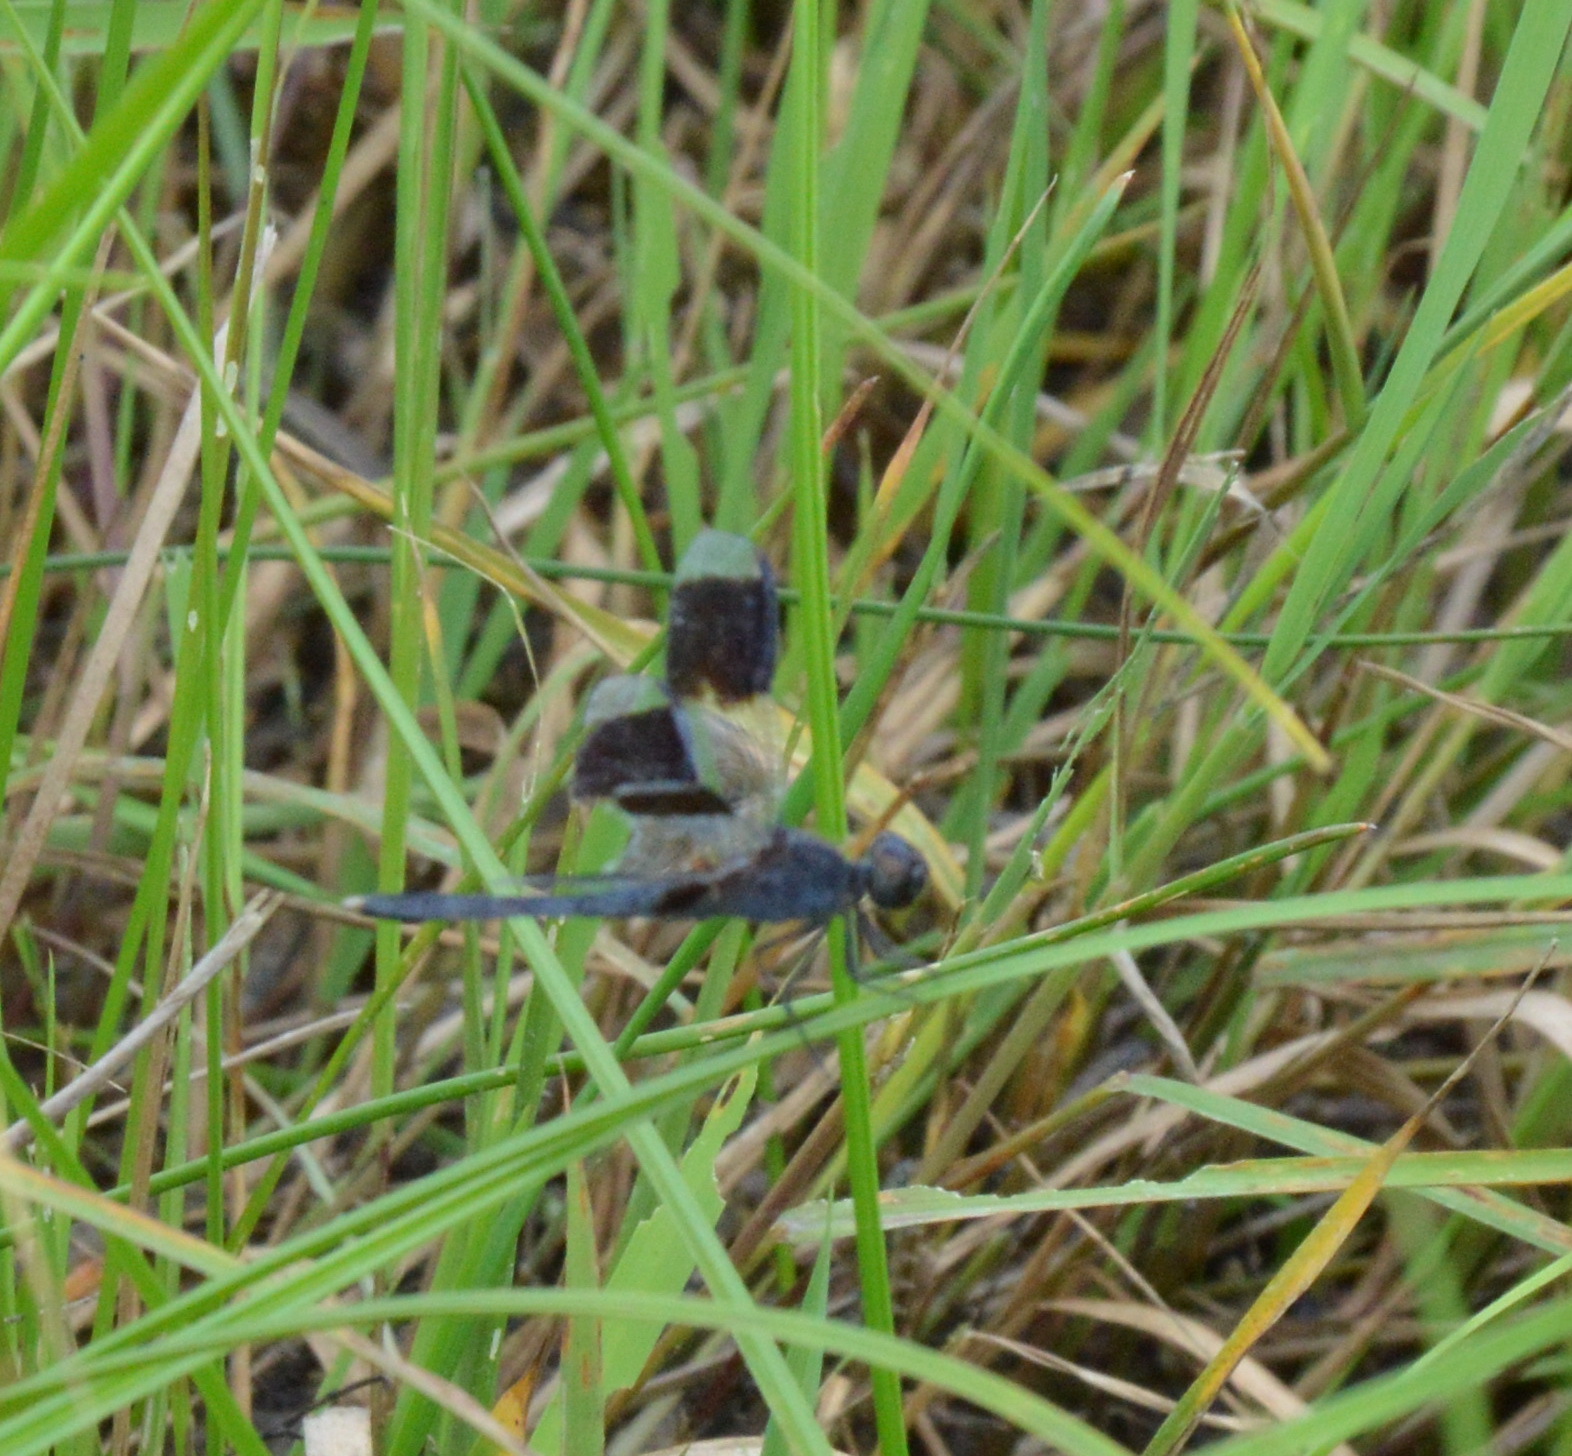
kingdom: Animalia
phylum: Arthropoda
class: Insecta
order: Odonata
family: Libellulidae
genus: Erythrodiplax
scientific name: Erythrodiplax umbrata
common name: Band-winged dragonlet
